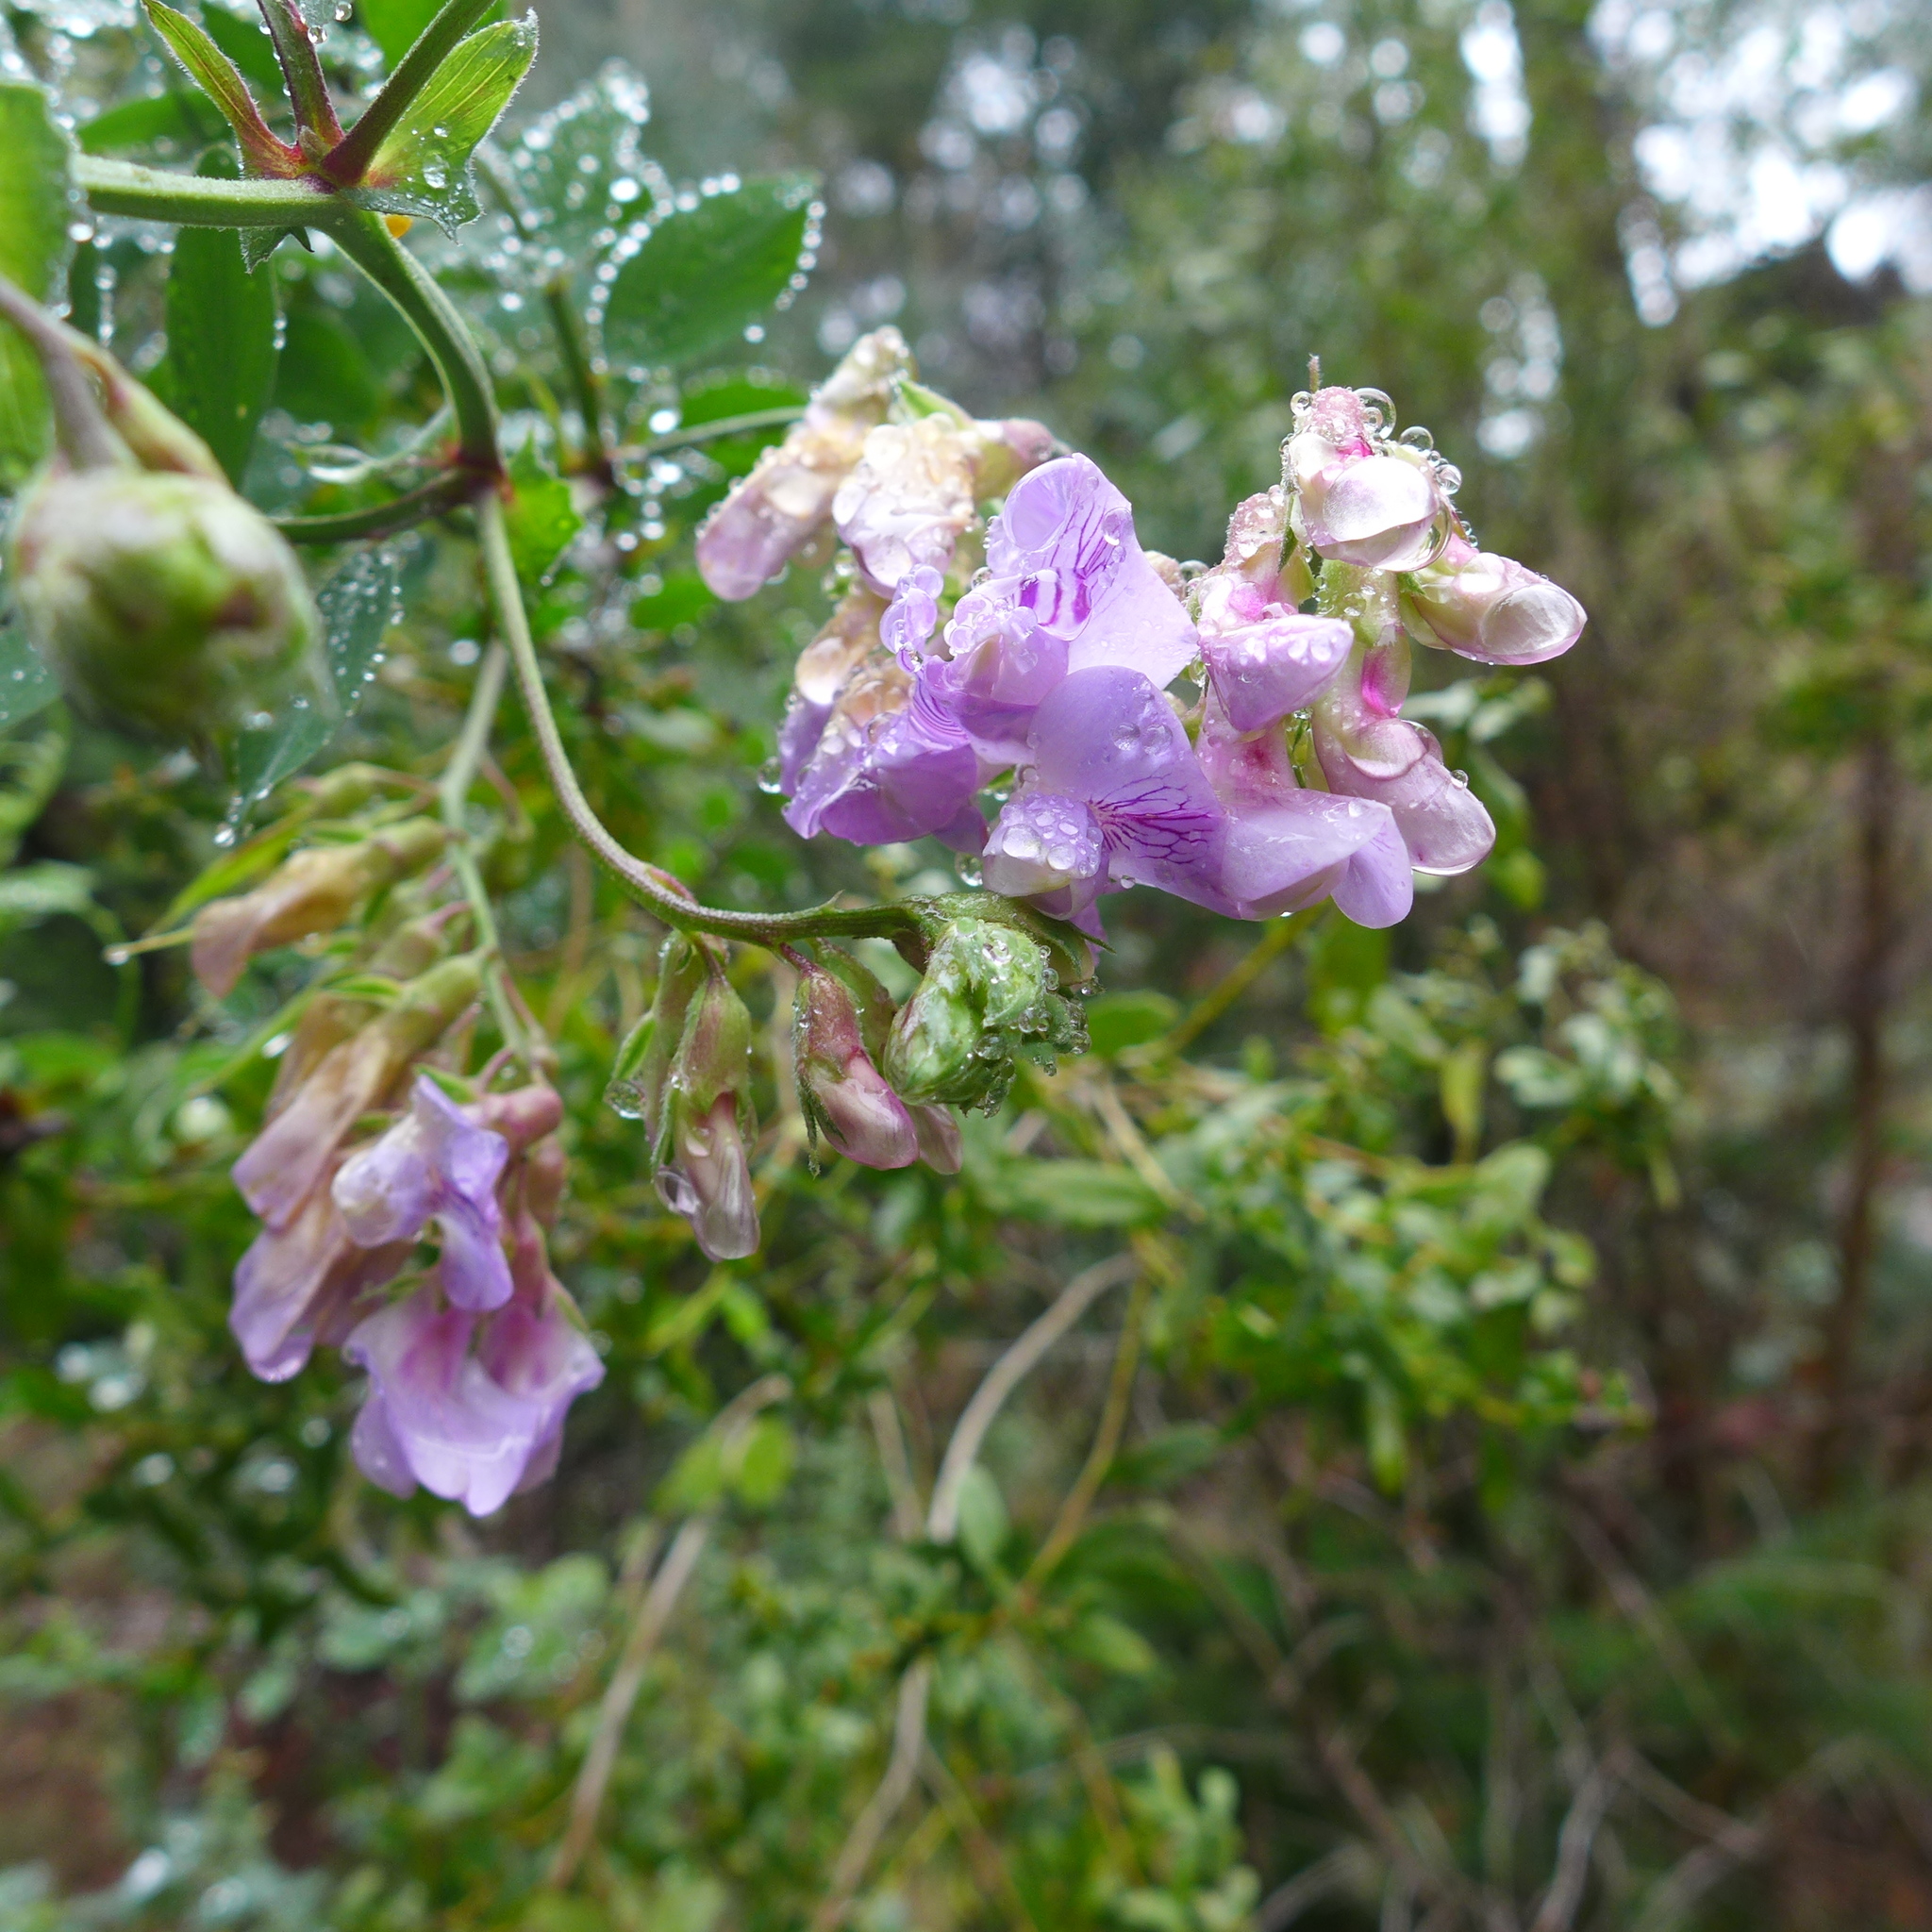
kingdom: Plantae
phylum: Tracheophyta
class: Magnoliopsida
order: Fabales
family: Fabaceae
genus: Lathyrus
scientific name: Lathyrus vestitus
